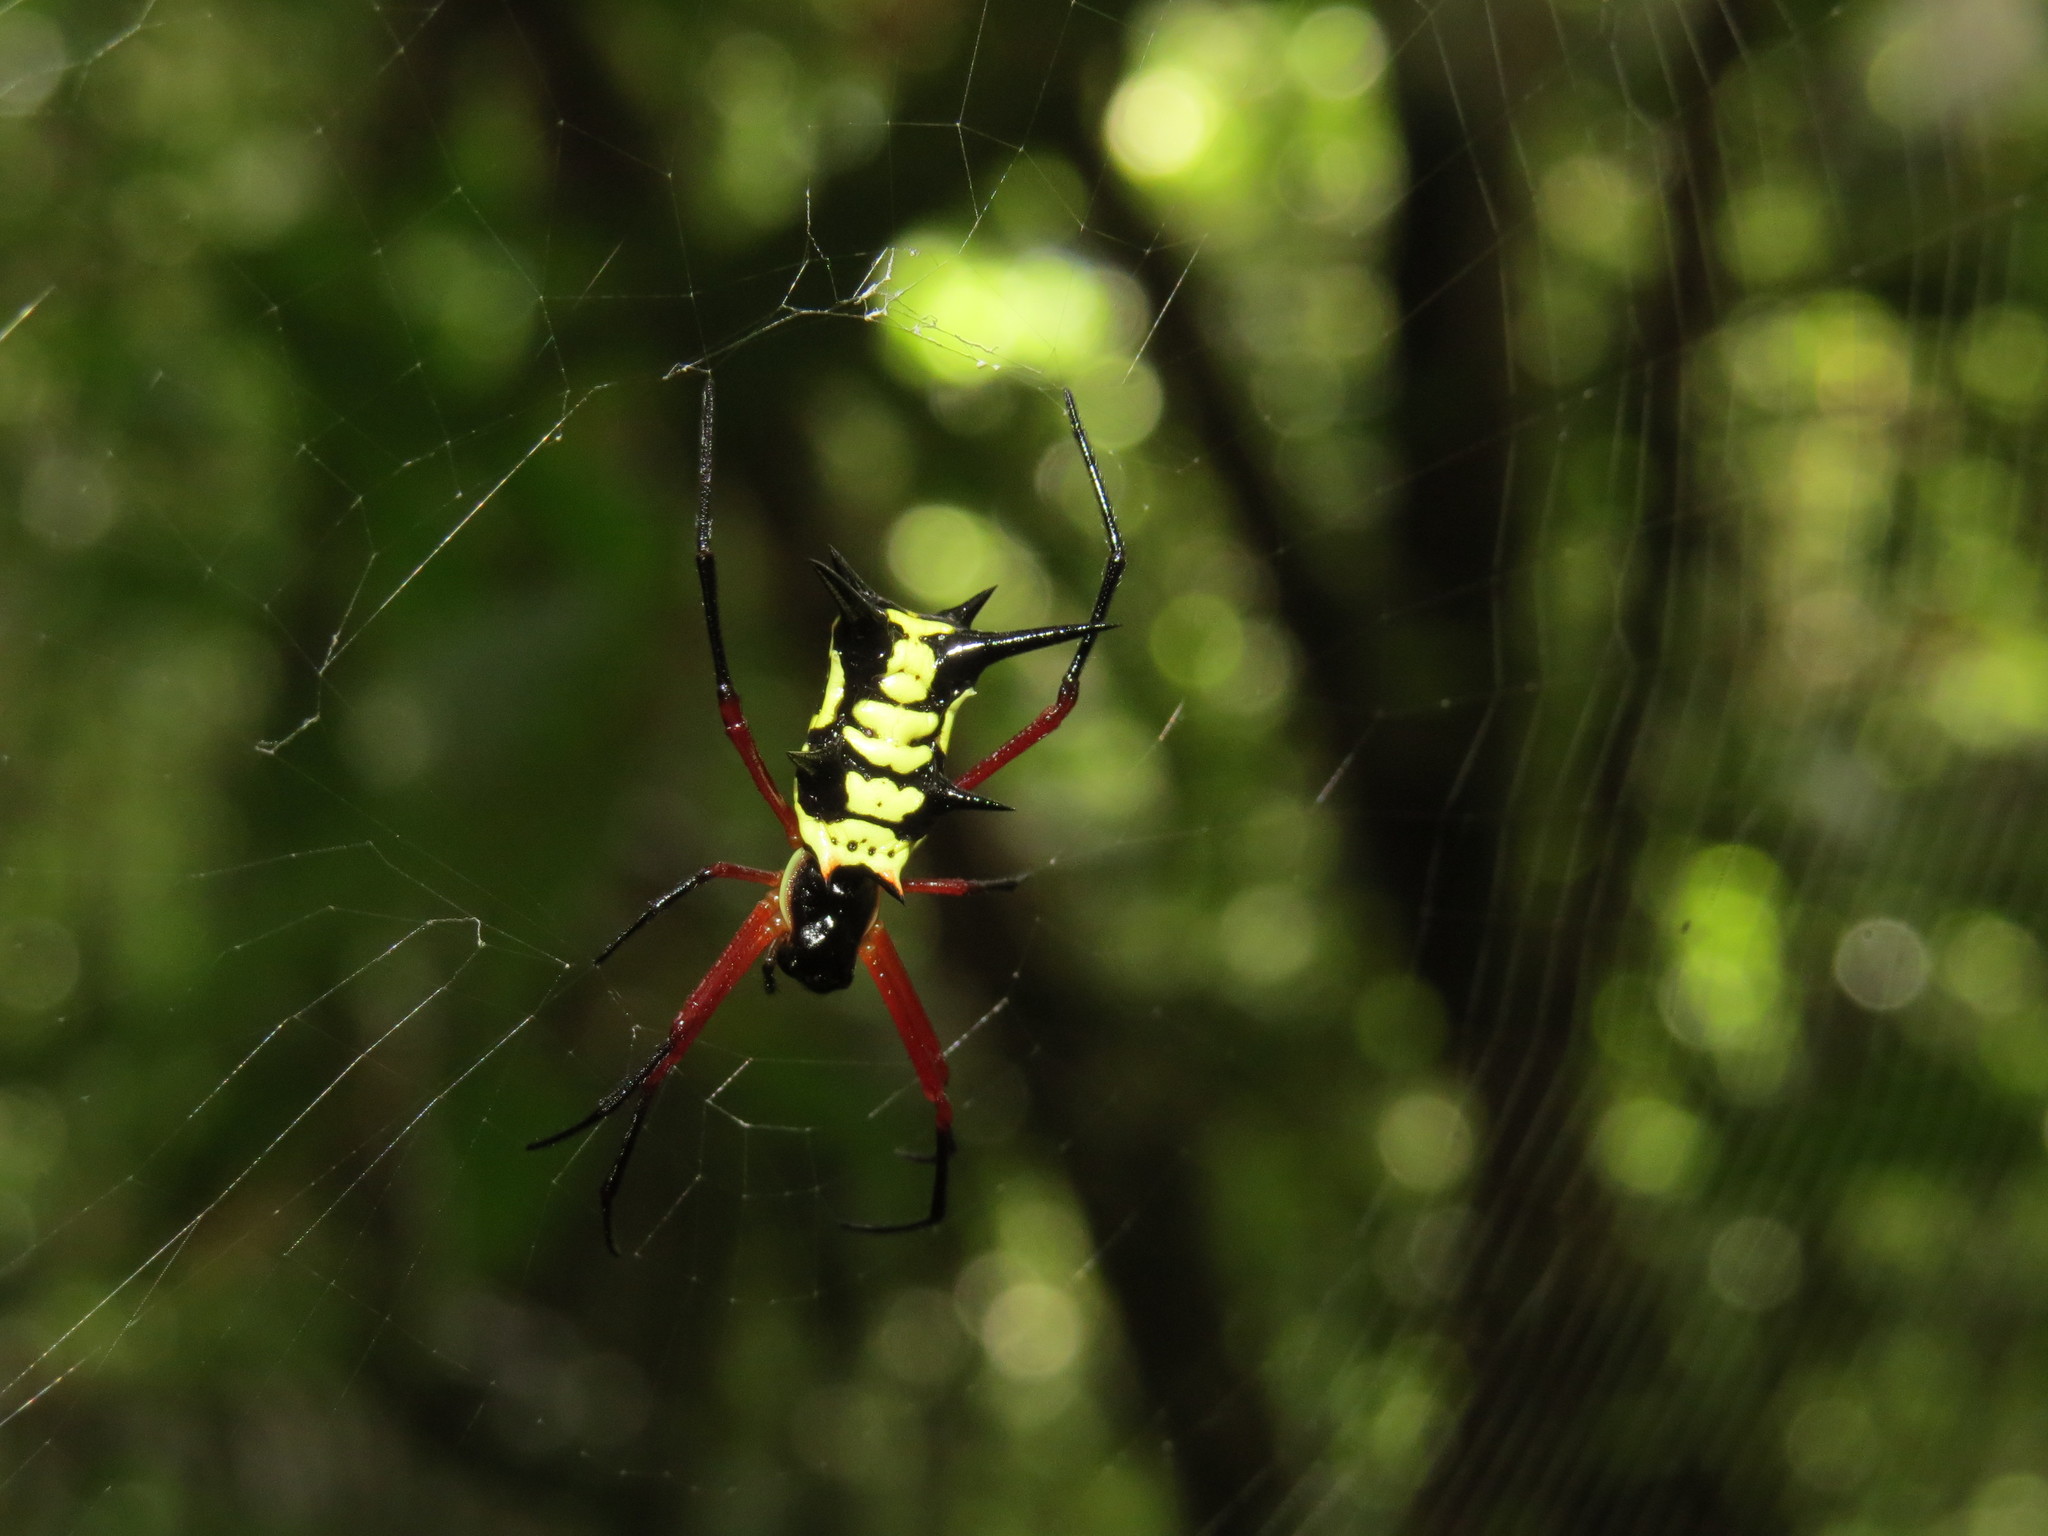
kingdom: Animalia
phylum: Arthropoda
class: Arachnida
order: Araneae
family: Araneidae
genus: Micrathena
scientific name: Micrathena kirbyi
